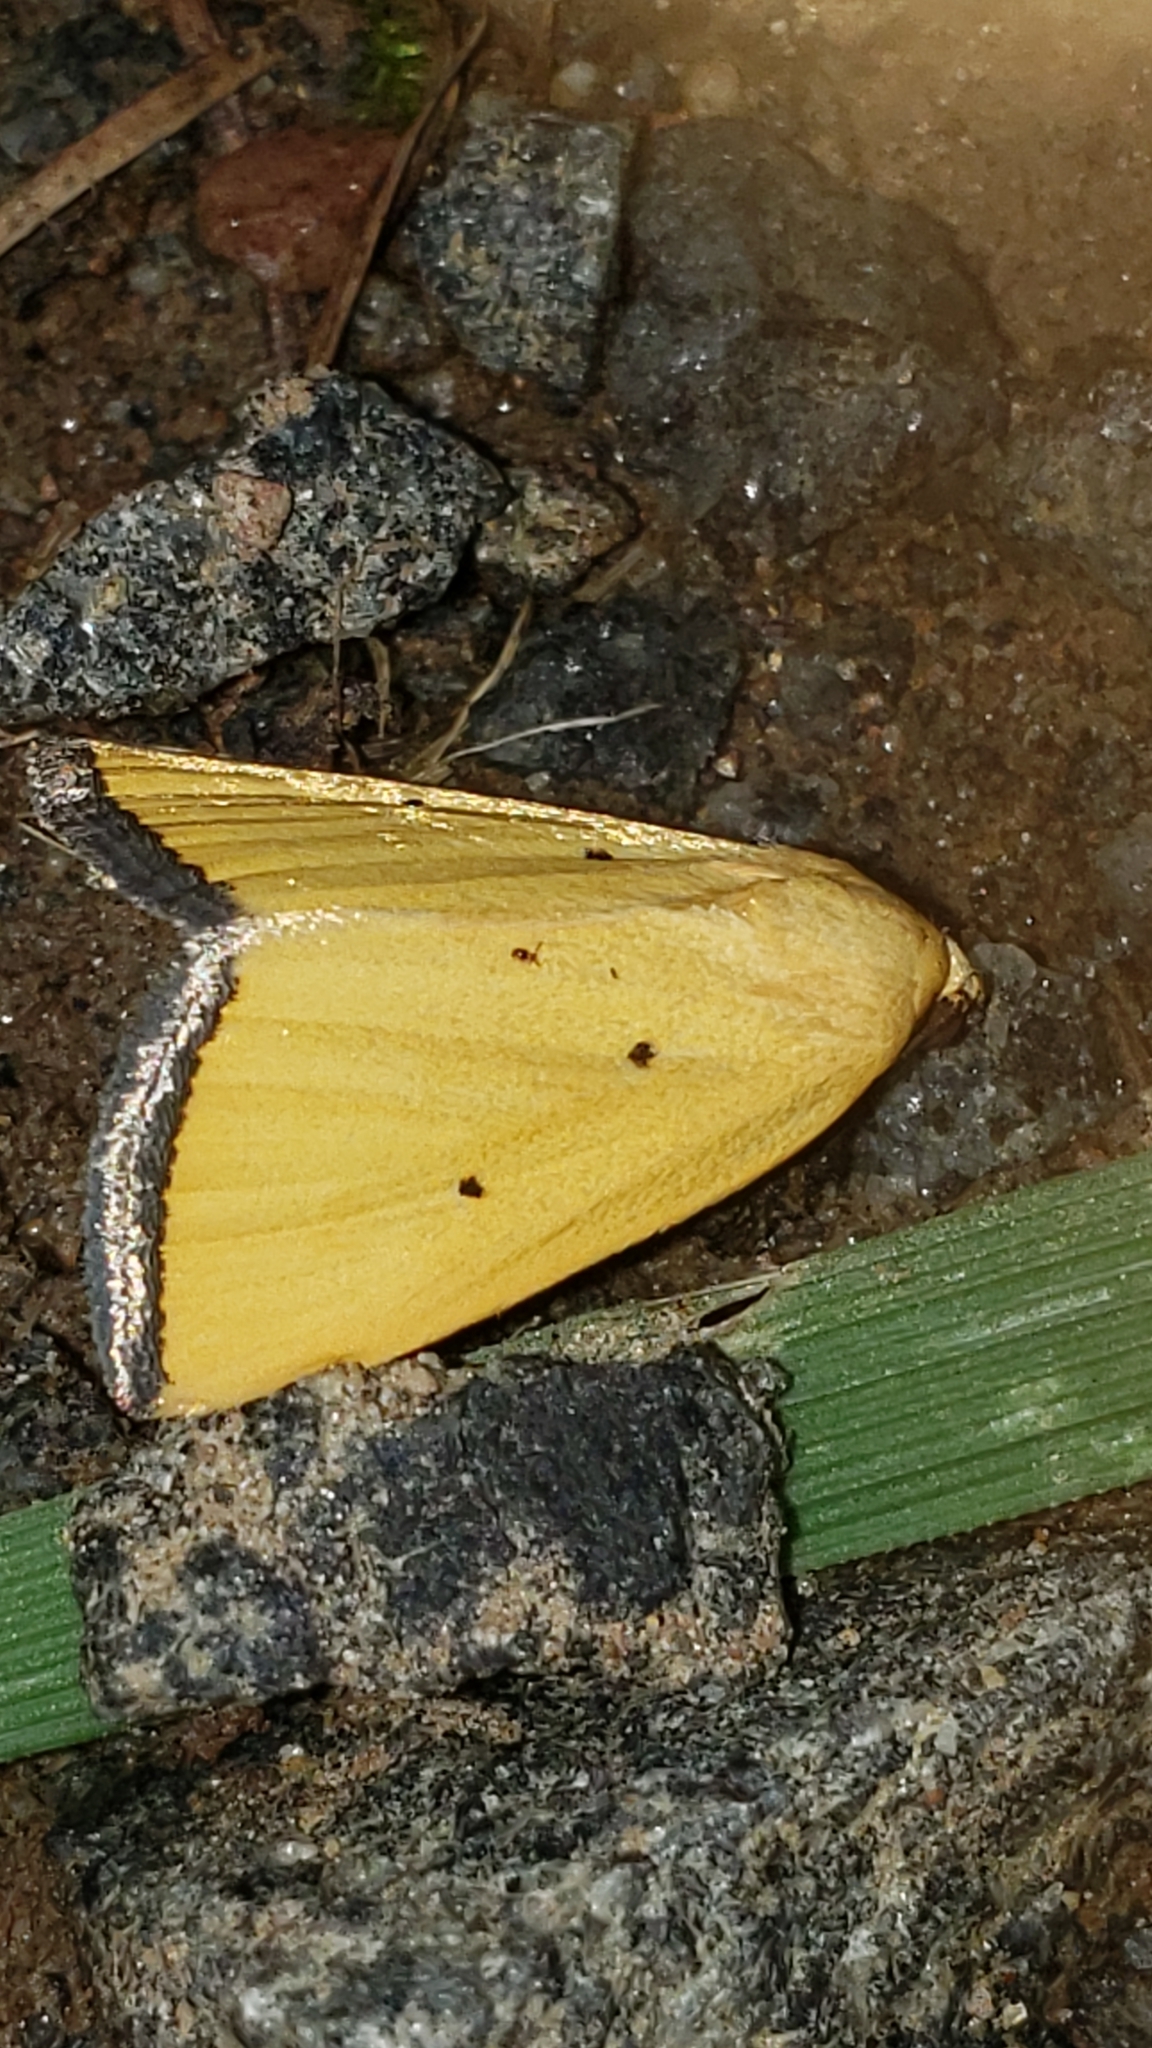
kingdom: Animalia
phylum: Arthropoda
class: Insecta
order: Lepidoptera
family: Noctuidae
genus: Marimatha
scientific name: Marimatha nigrofimbria
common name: Black-bordered lemon moth
